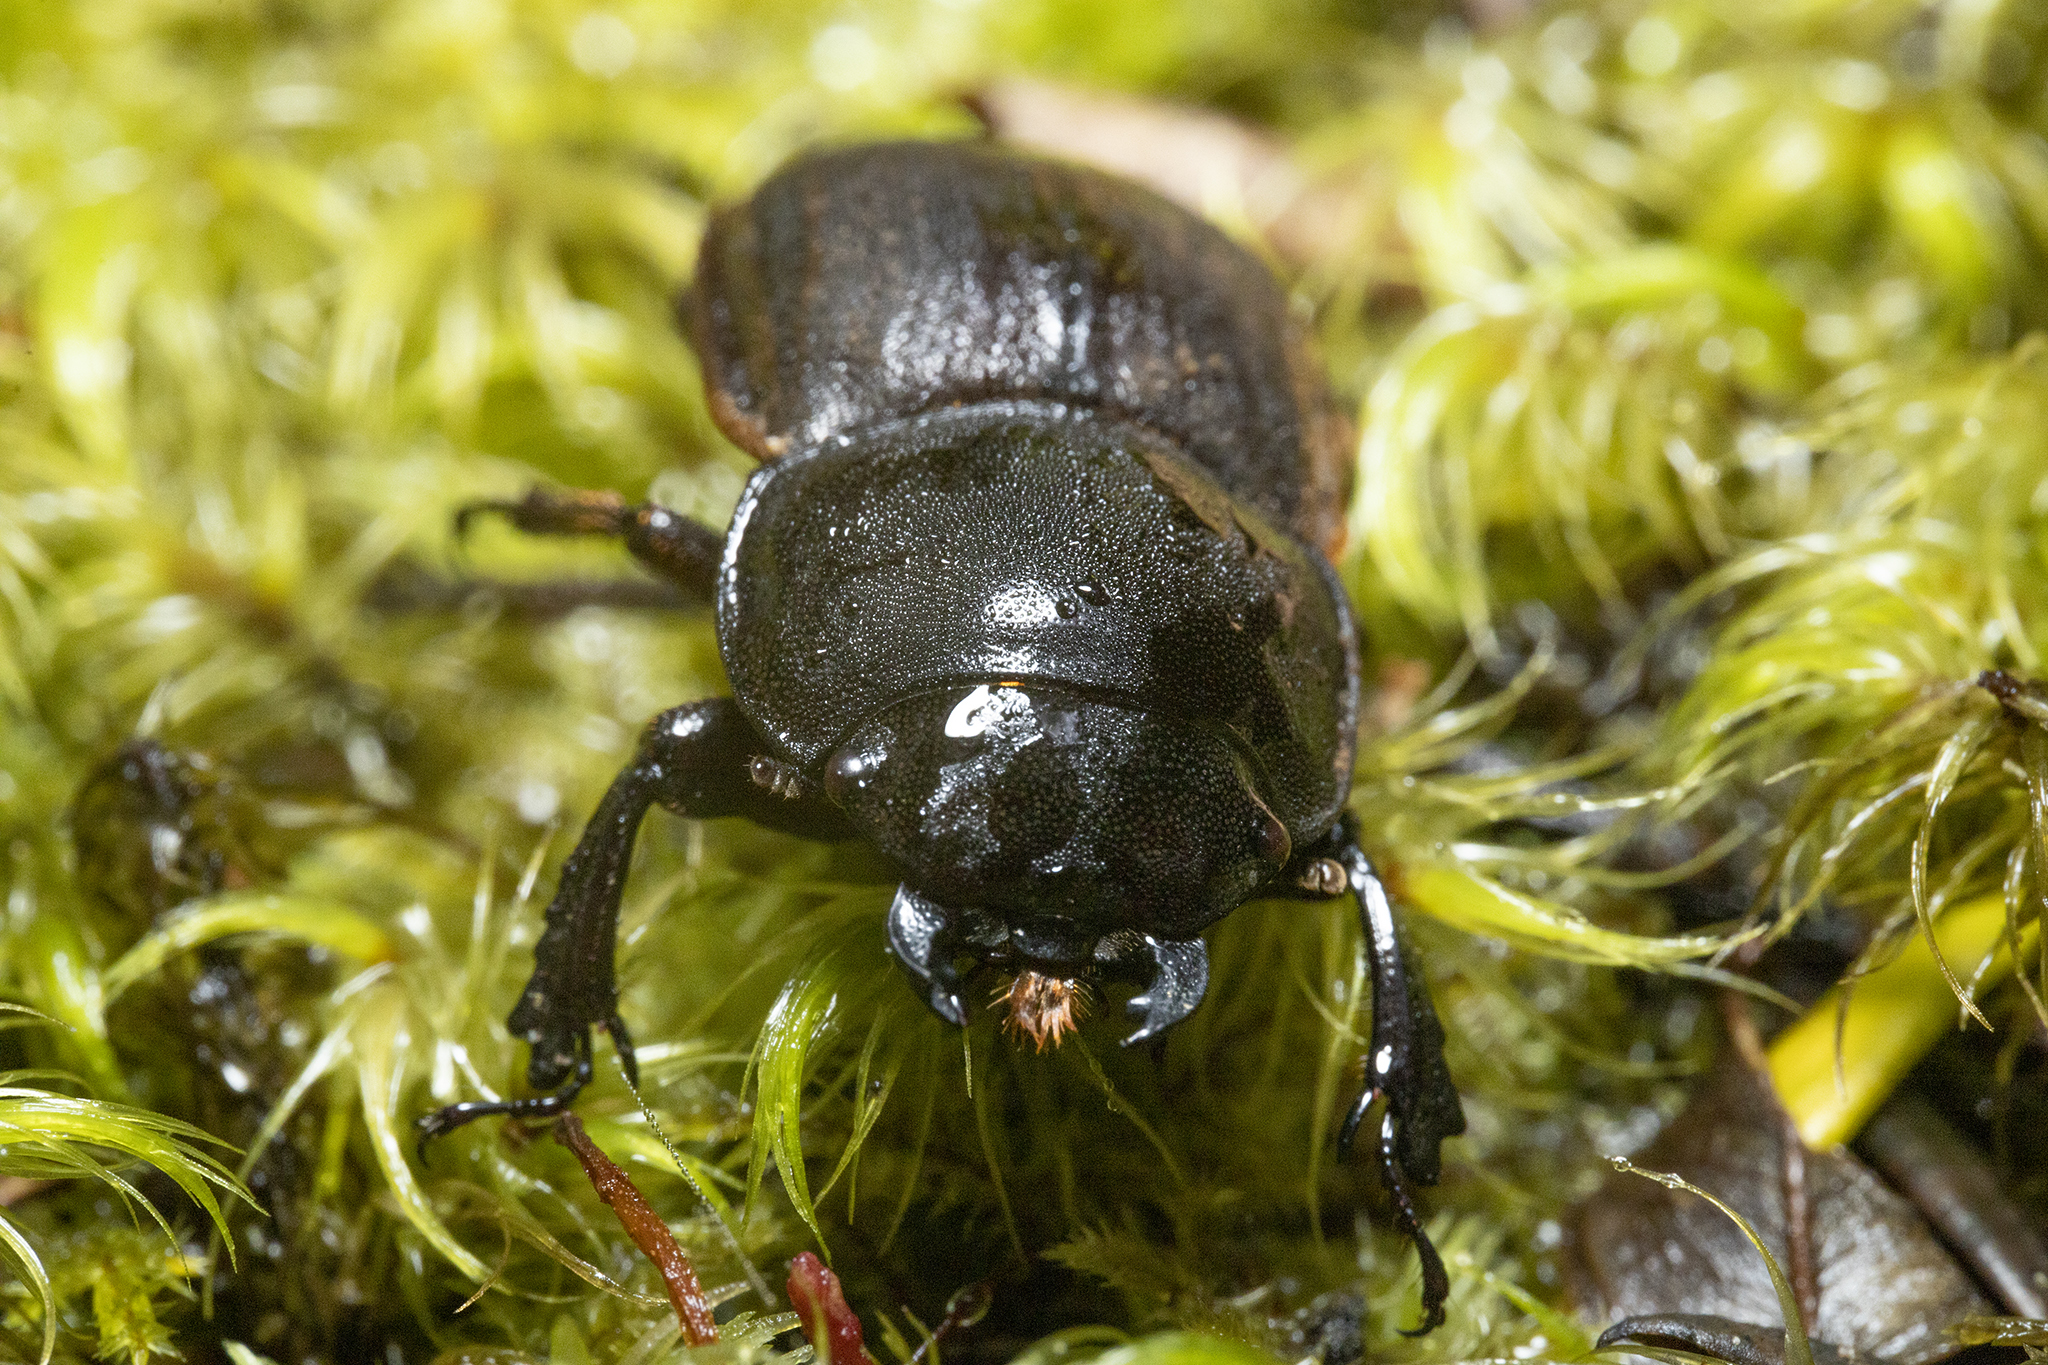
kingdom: Animalia
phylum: Arthropoda
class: Insecta
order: Coleoptera
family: Lucanidae
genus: Geodorcus
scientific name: Geodorcus helmsi
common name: Helm's stag beetle
